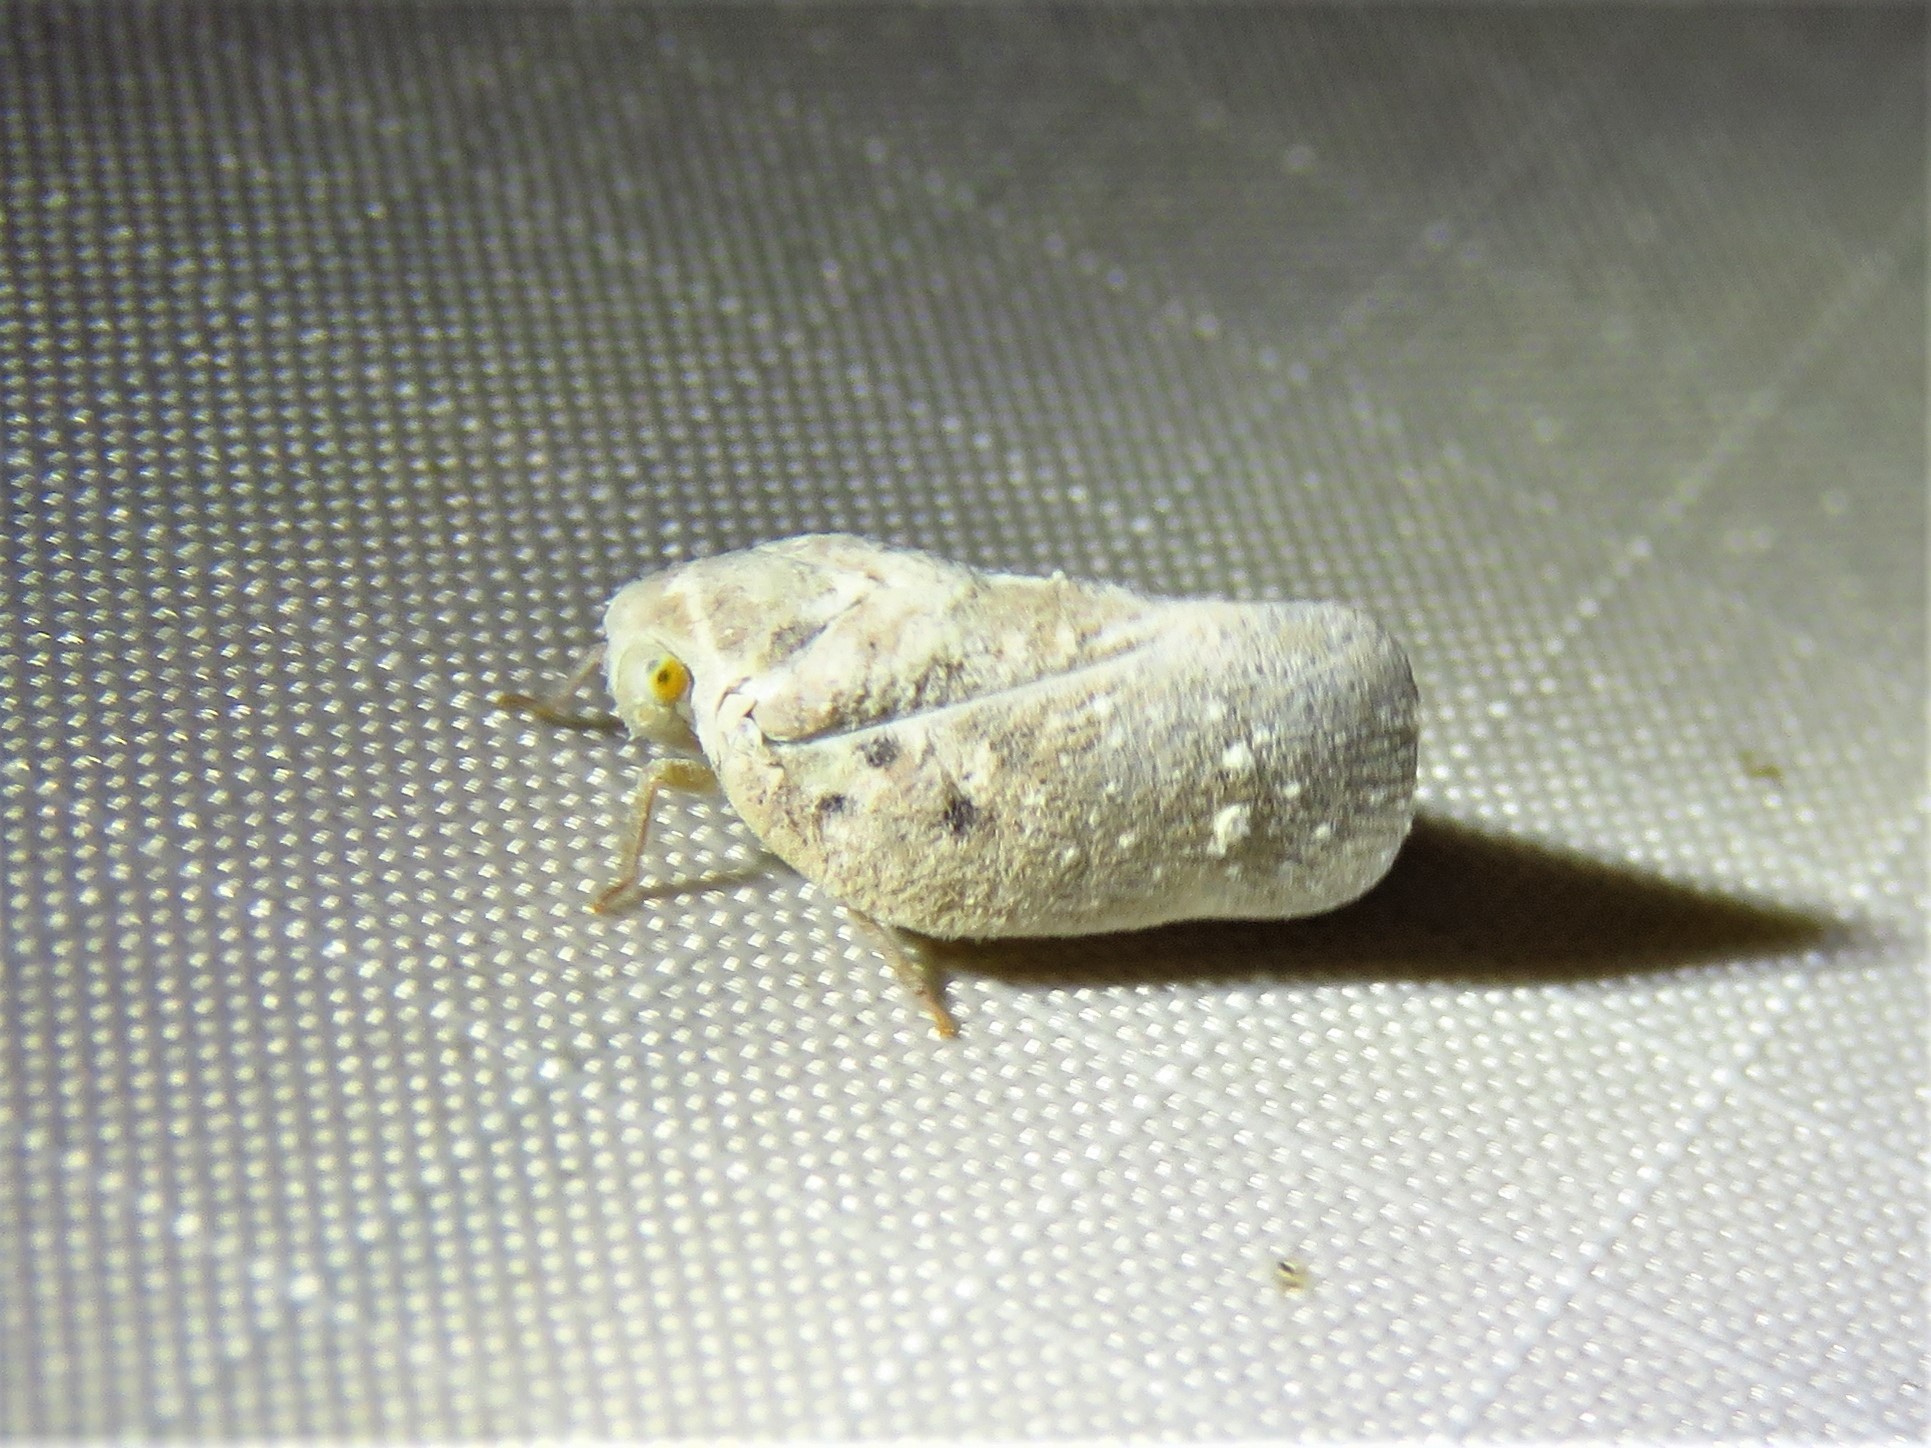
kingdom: Animalia
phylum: Arthropoda
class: Insecta
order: Hemiptera
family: Flatidae
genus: Metcalfa
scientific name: Metcalfa pruinosa
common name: Citrus flatid planthopper
